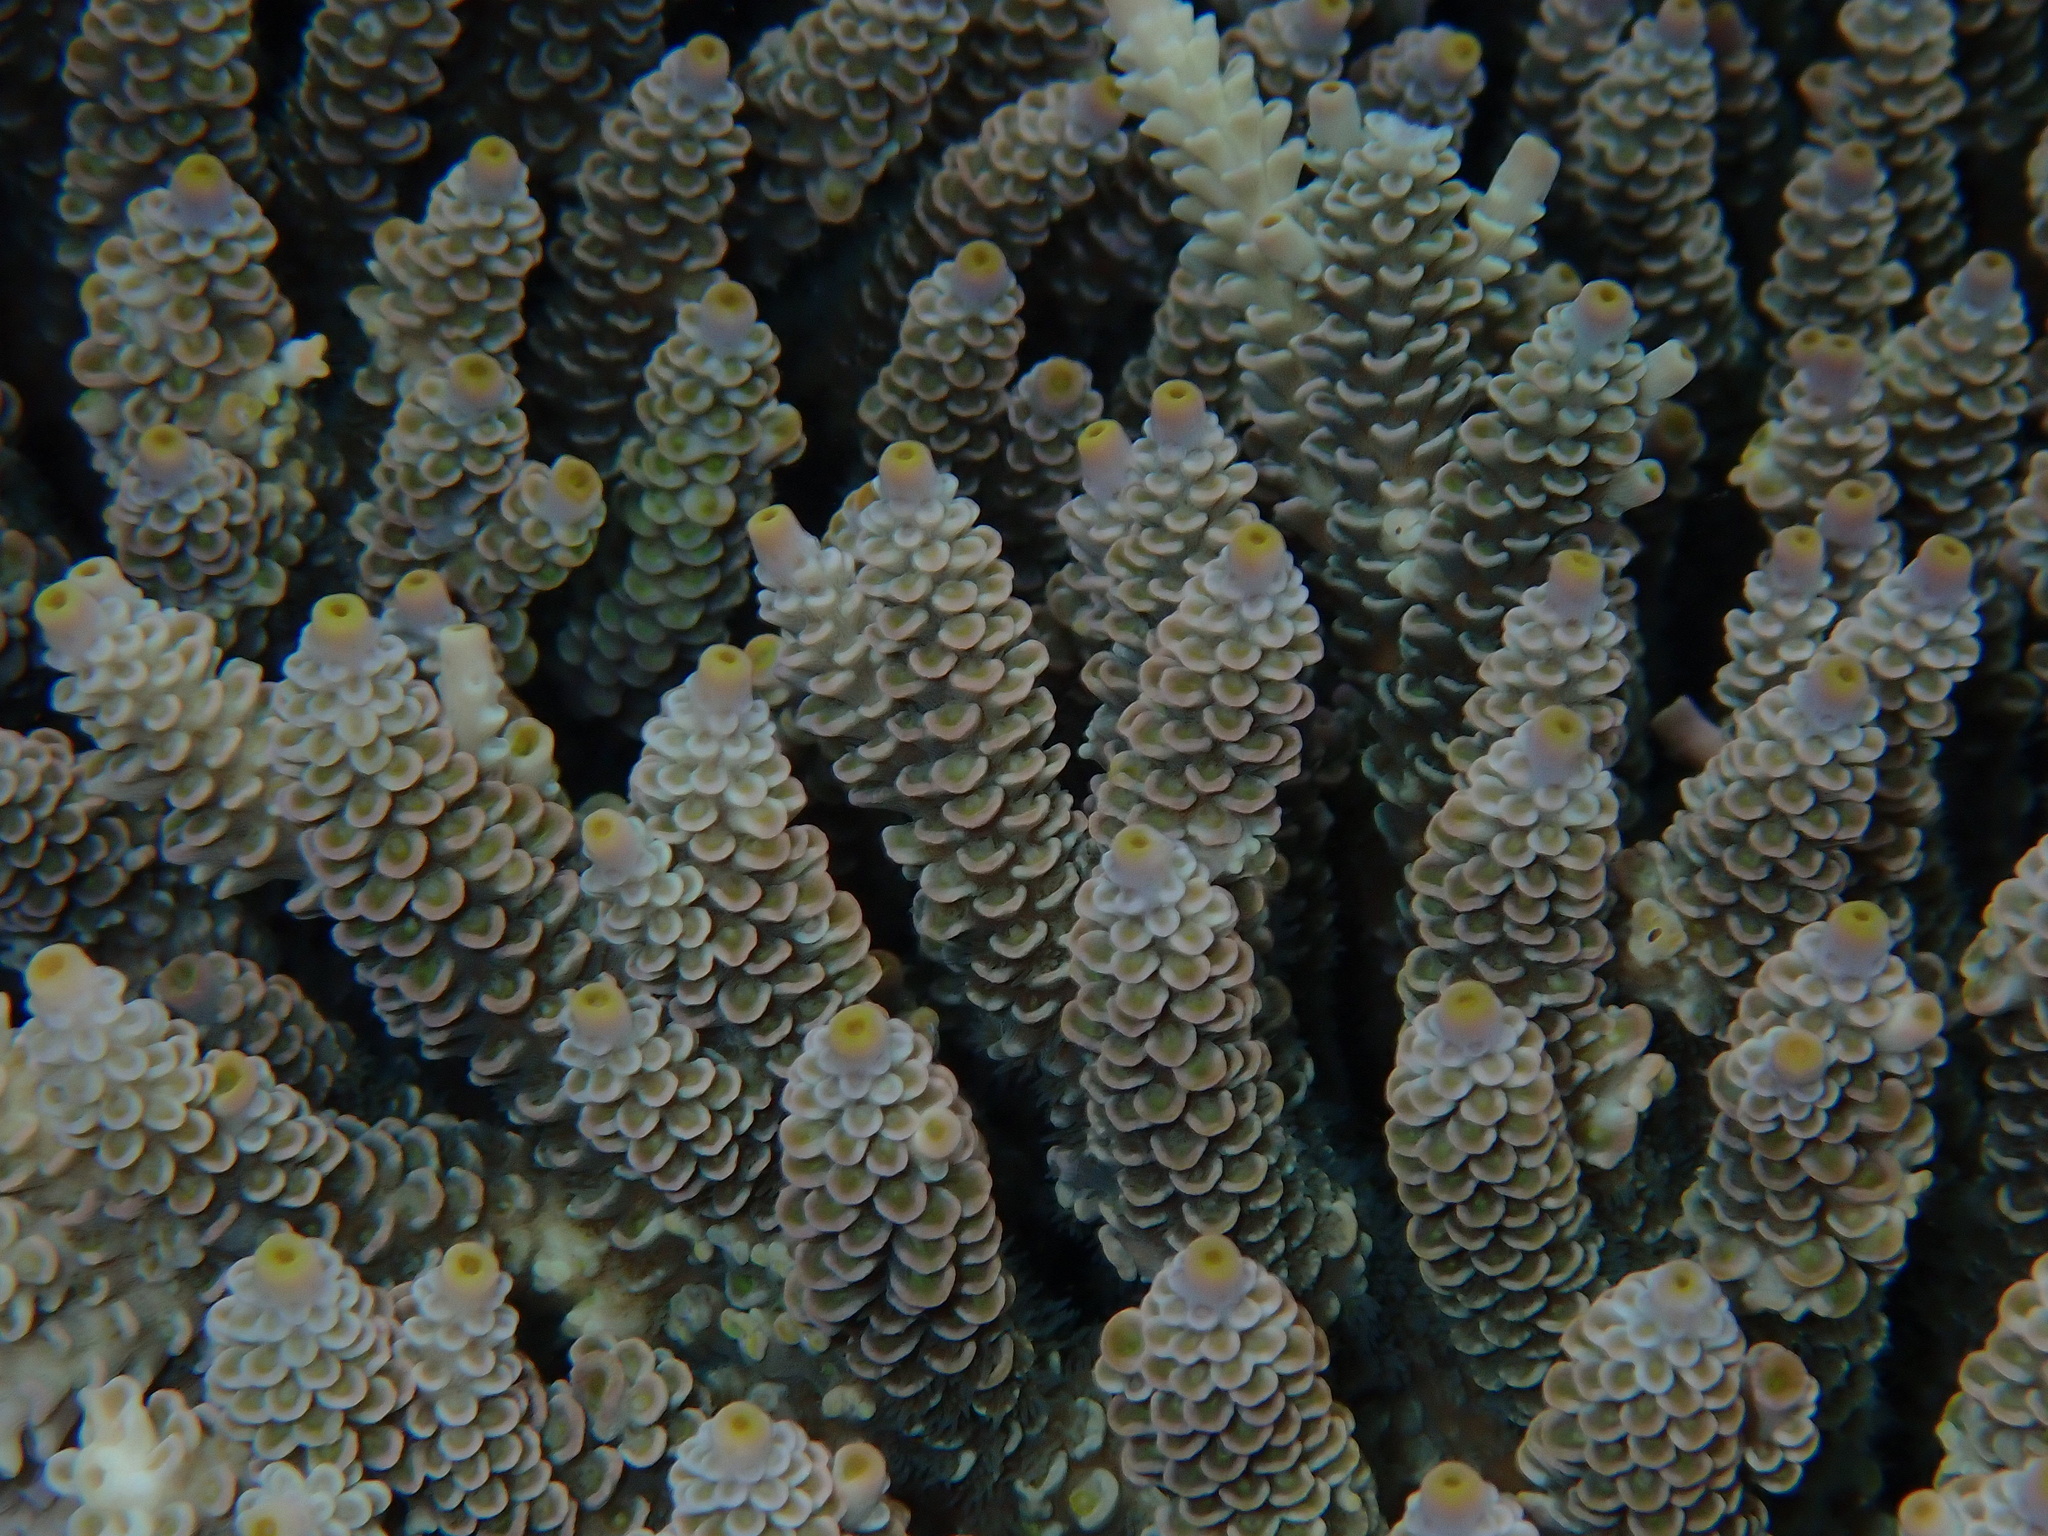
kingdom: Animalia
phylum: Cnidaria
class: Anthozoa
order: Scleractinia
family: Acroporidae
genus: Acropora
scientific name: Acropora tenuis
